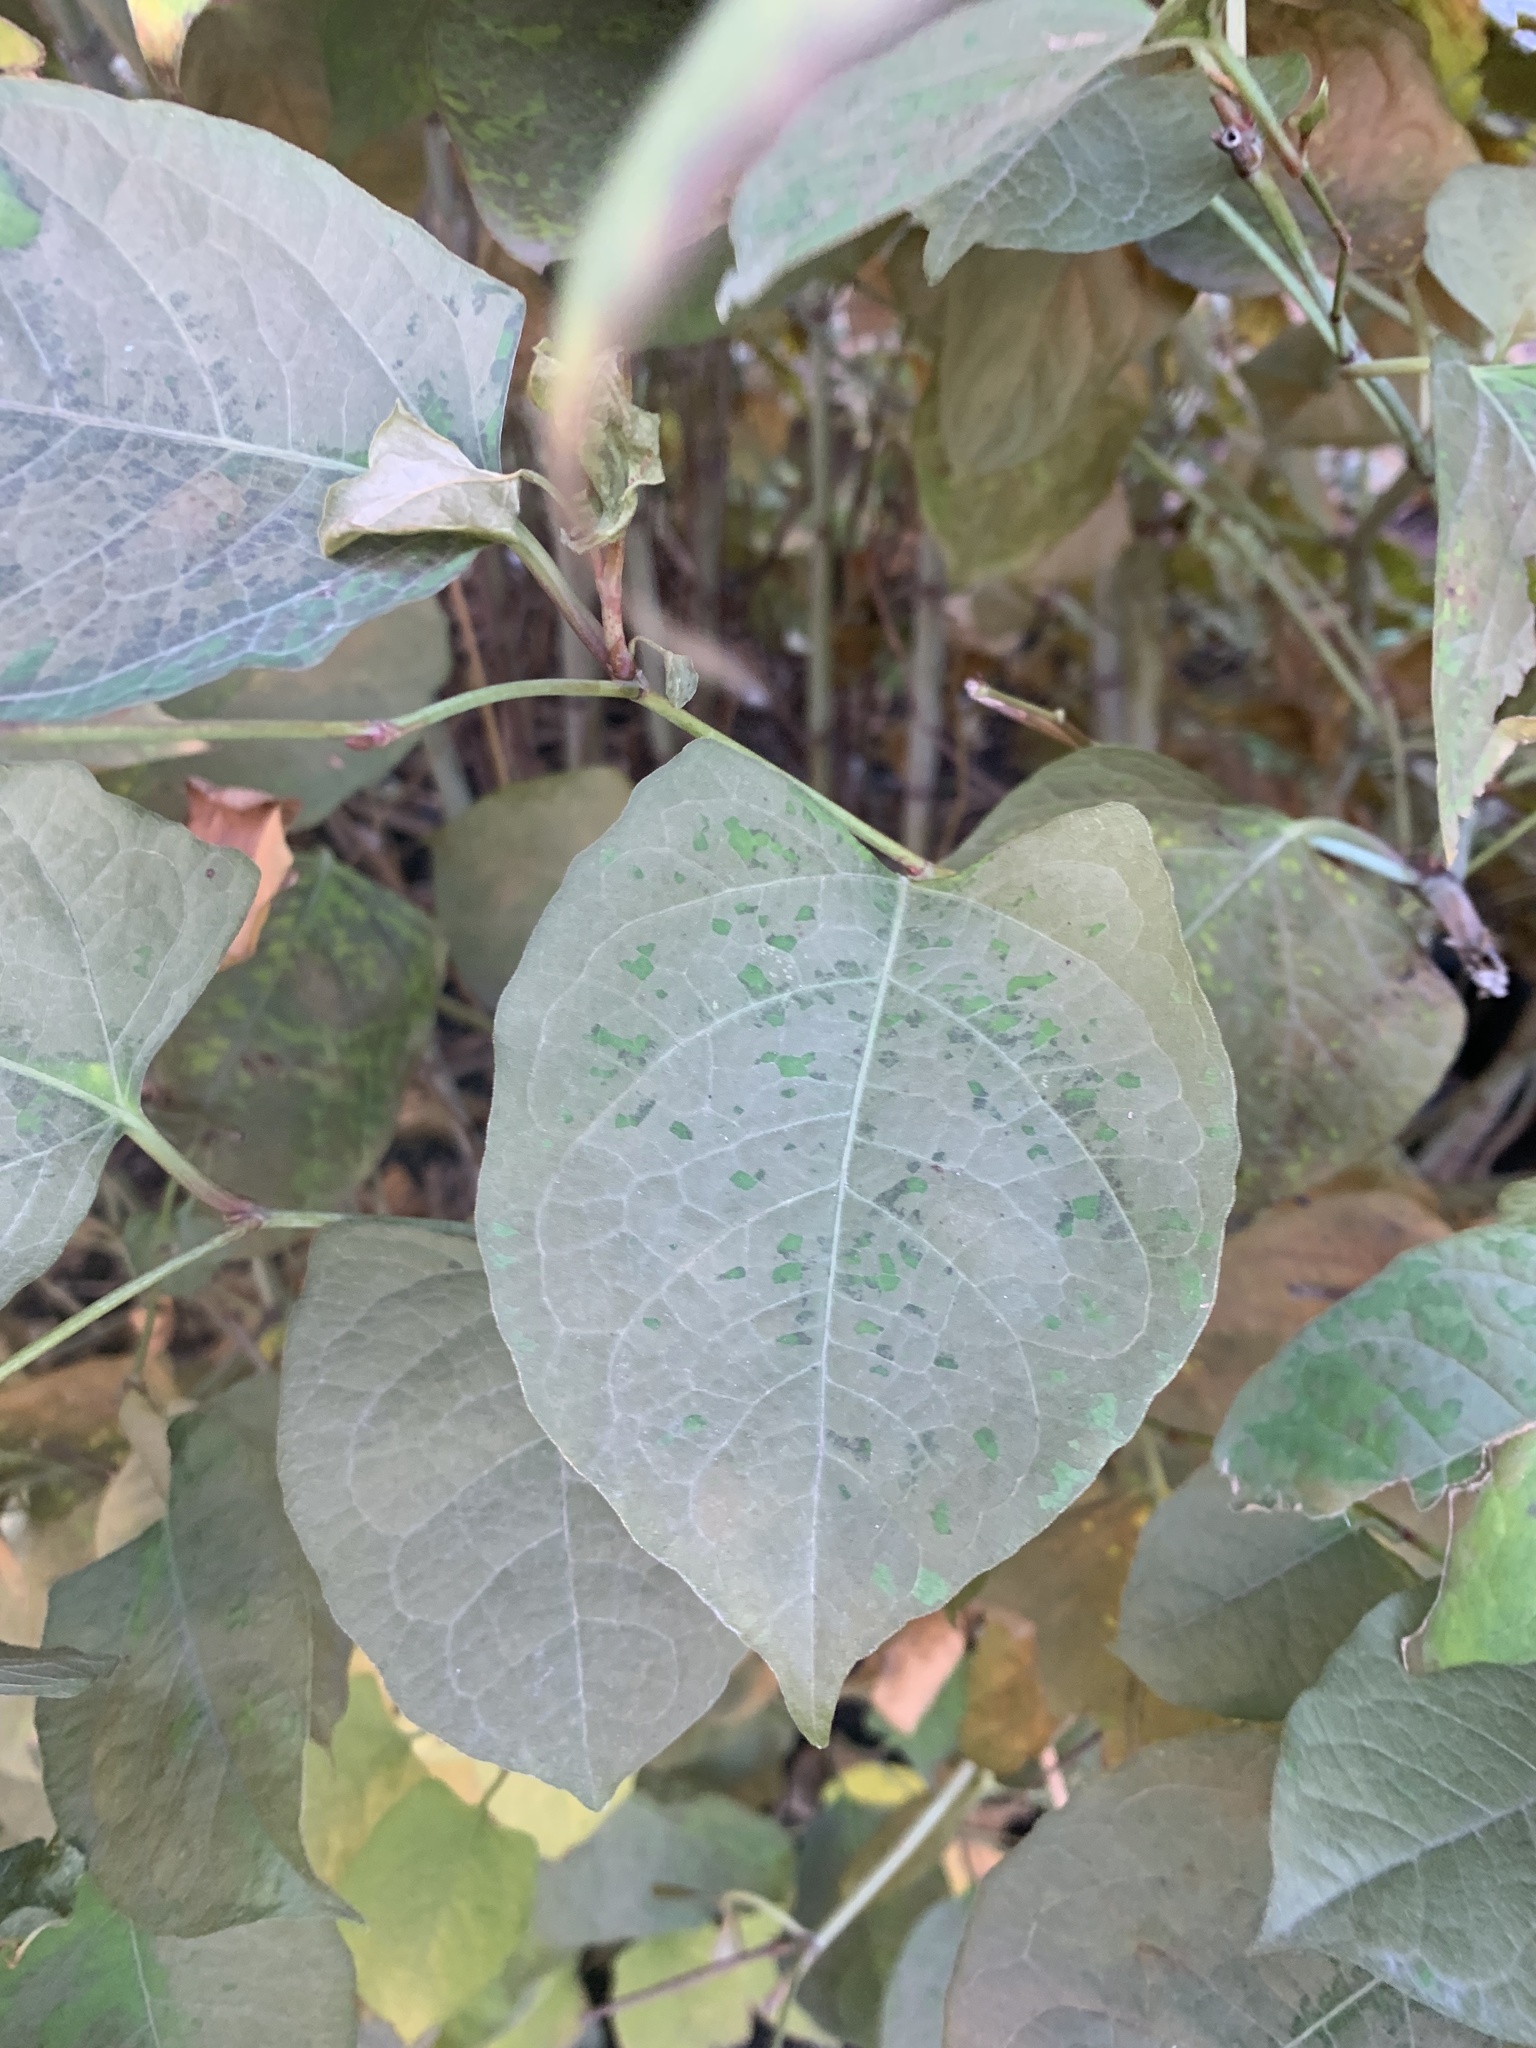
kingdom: Plantae
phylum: Tracheophyta
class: Magnoliopsida
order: Caryophyllales
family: Polygonaceae
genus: Reynoutria
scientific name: Reynoutria bohemica
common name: Bohemian knotweed
